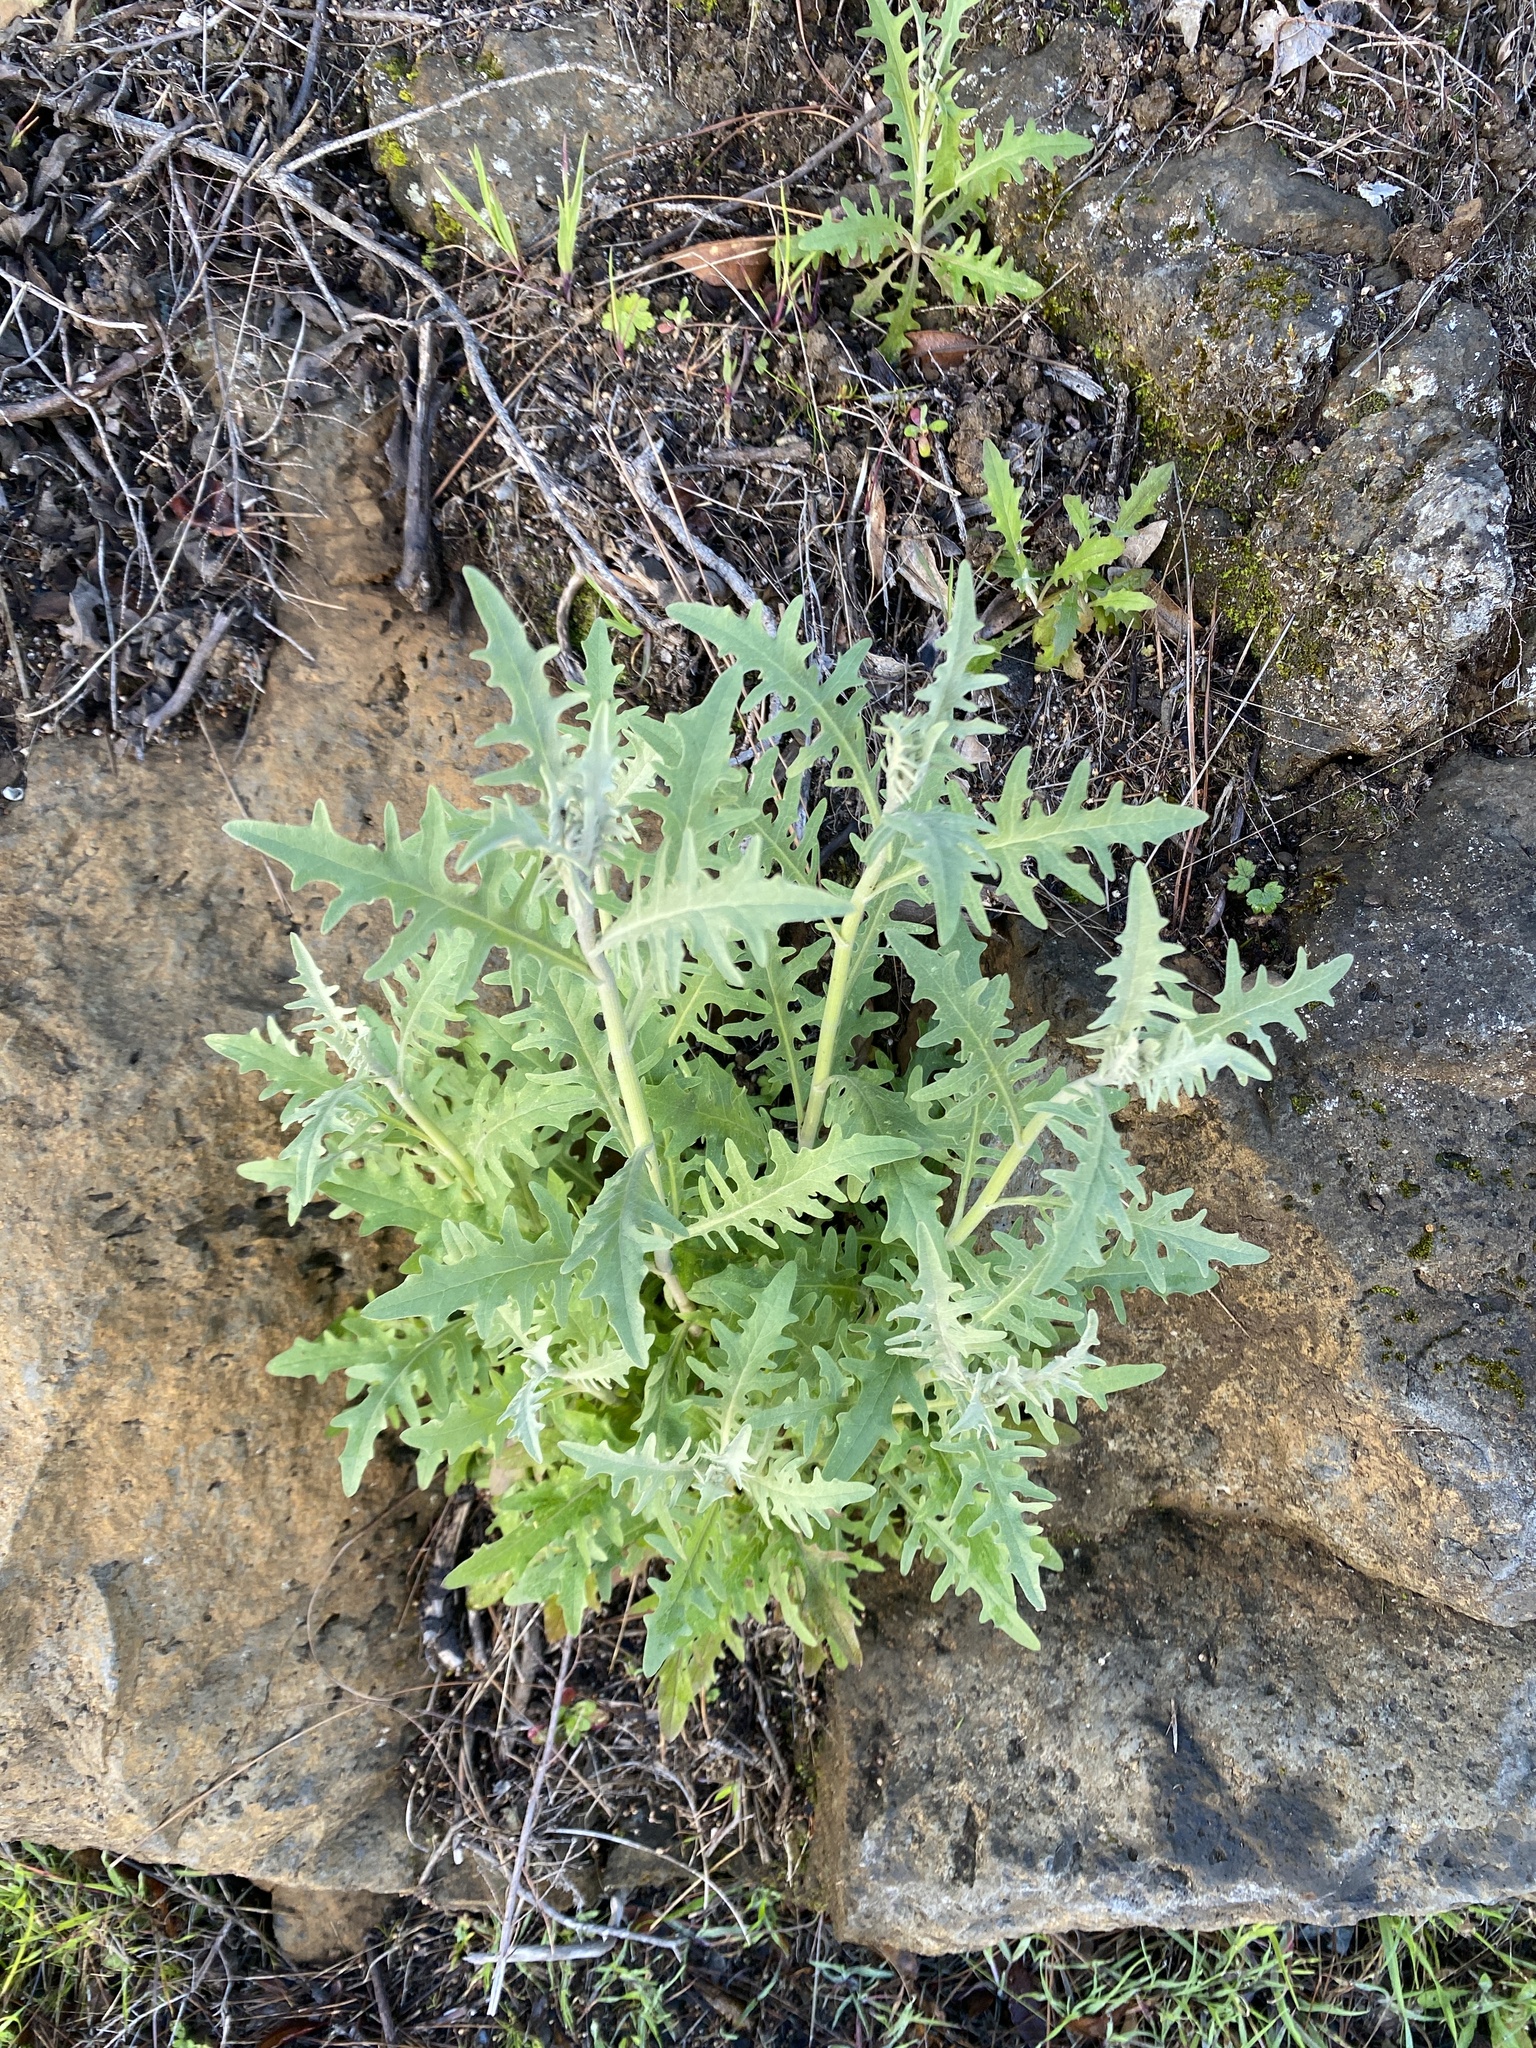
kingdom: Plantae
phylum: Tracheophyta
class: Magnoliopsida
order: Asterales
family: Asteraceae
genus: Andryala
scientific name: Andryala pinnatifida
